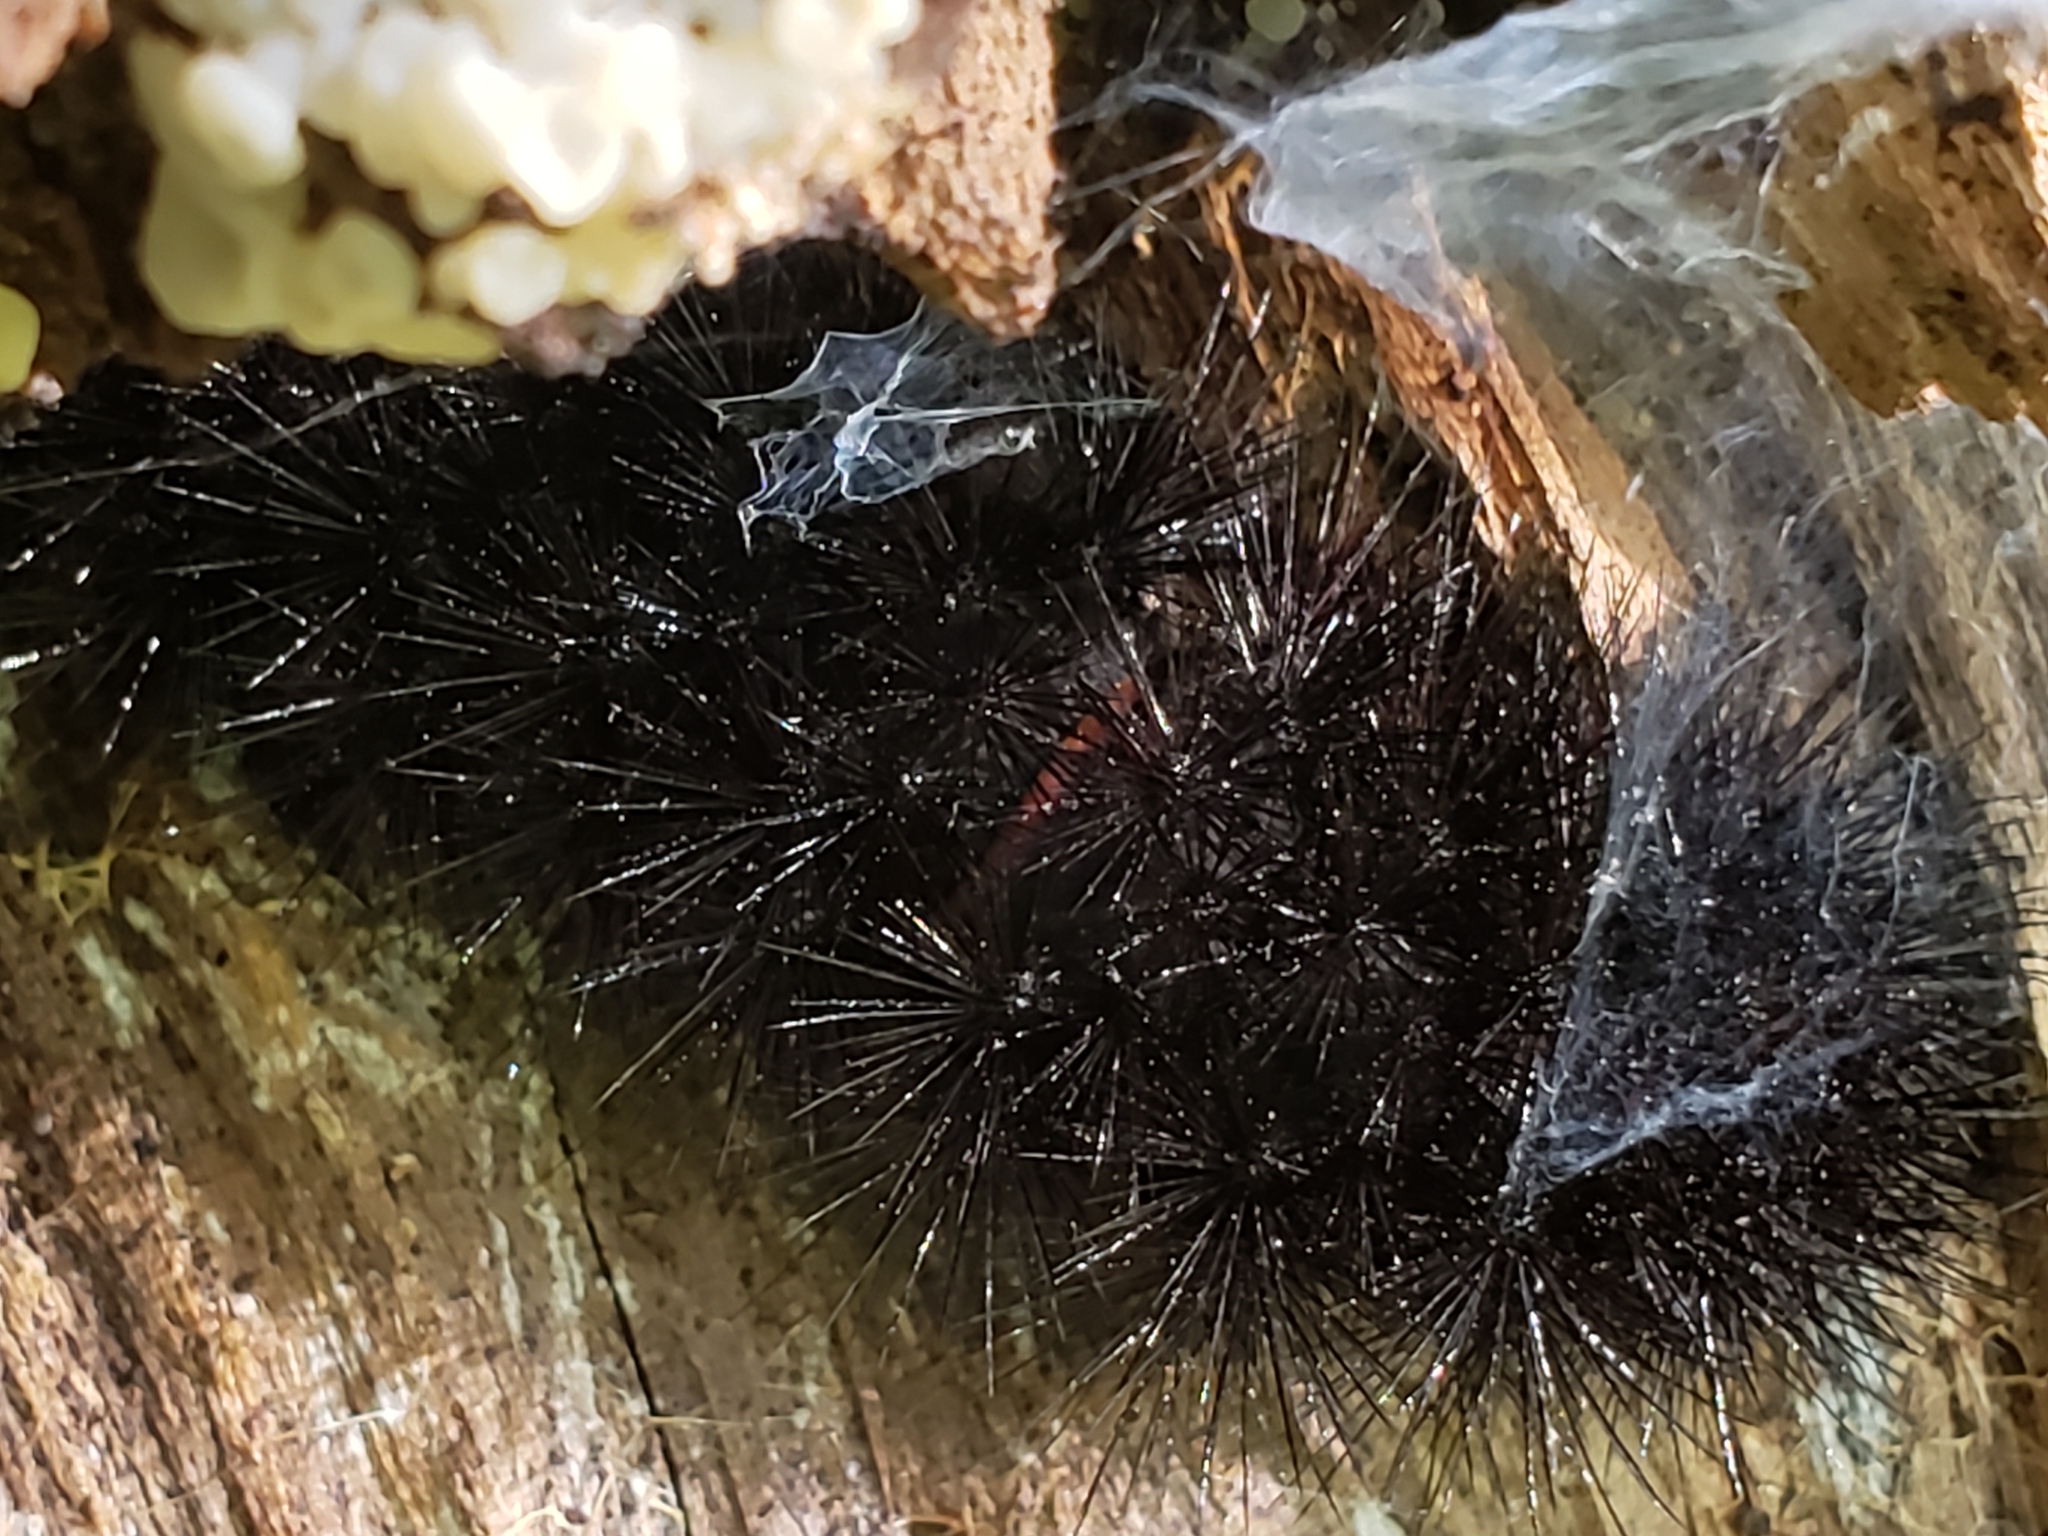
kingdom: Animalia
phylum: Arthropoda
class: Insecta
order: Lepidoptera
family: Erebidae
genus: Hypercompe
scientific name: Hypercompe scribonia
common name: Giant leopard moth
